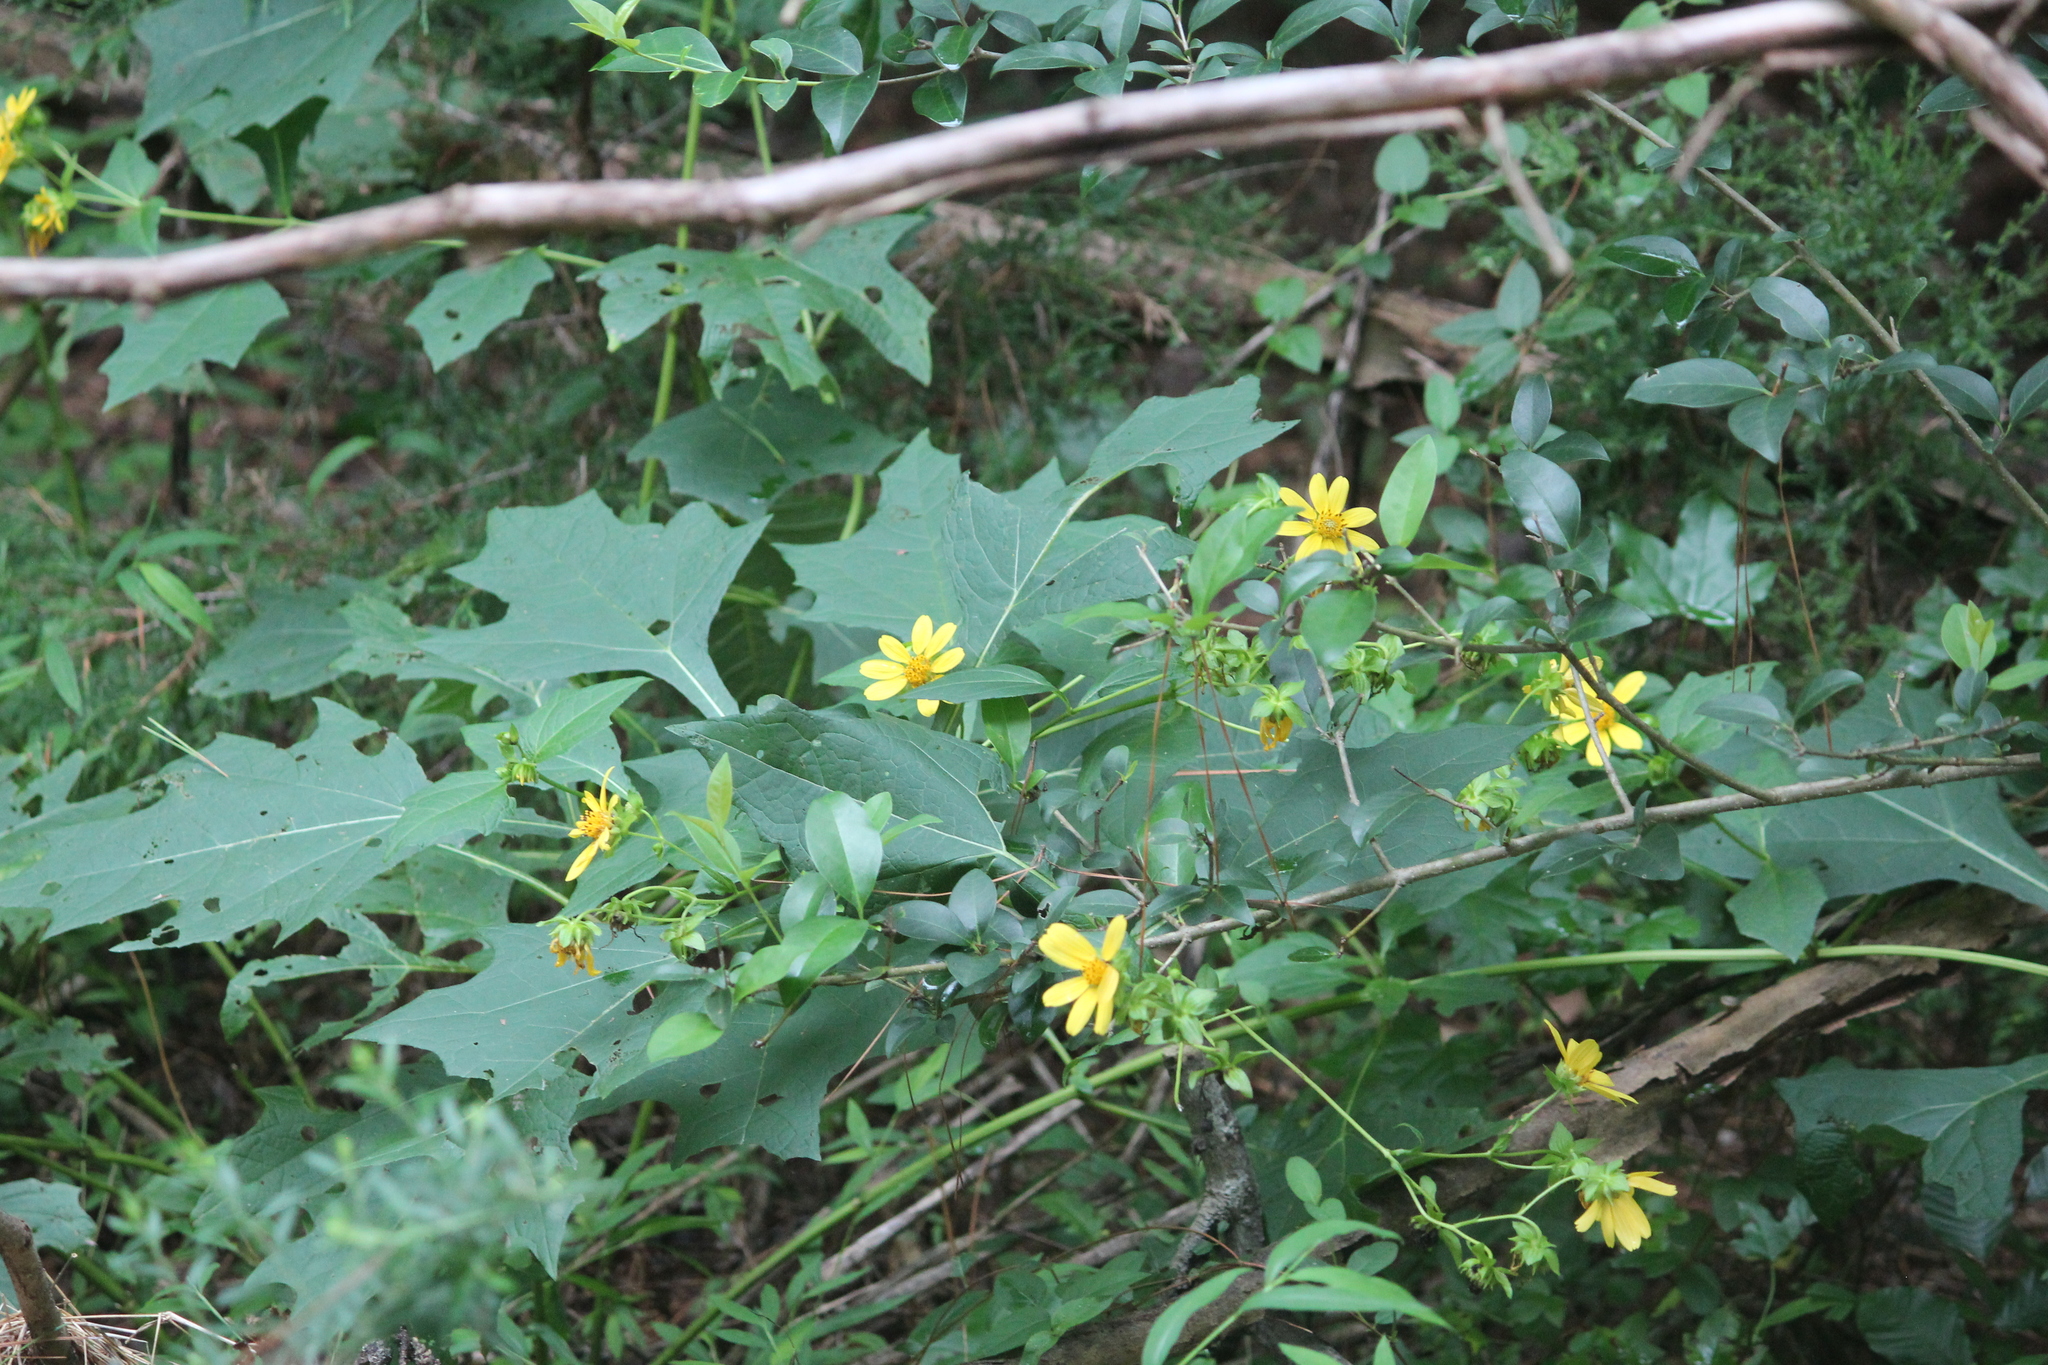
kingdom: Plantae
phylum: Tracheophyta
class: Magnoliopsida
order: Asterales
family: Asteraceae
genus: Smallanthus
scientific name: Smallanthus uvedalia
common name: Bear's-foot
